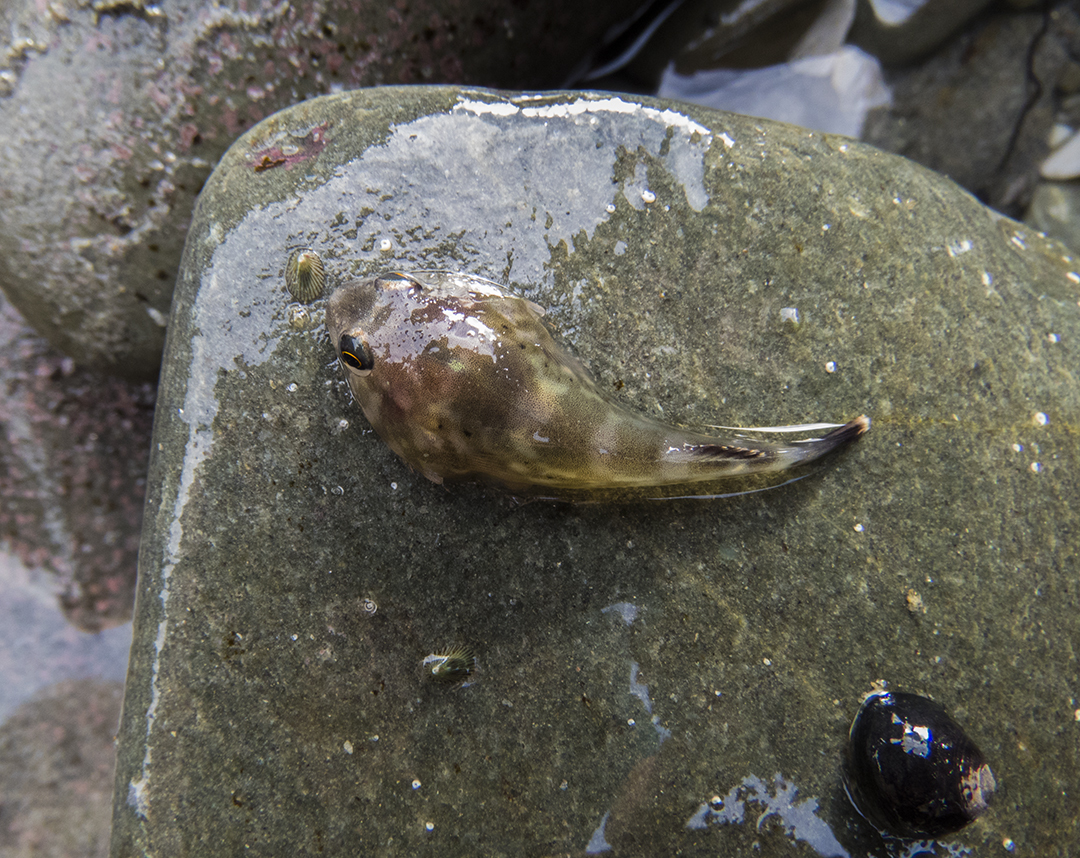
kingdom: Animalia
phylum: Chordata
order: Gobiesociformes
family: Gobiesocidae
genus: Diplocrepis
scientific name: Diplocrepis puniceus
